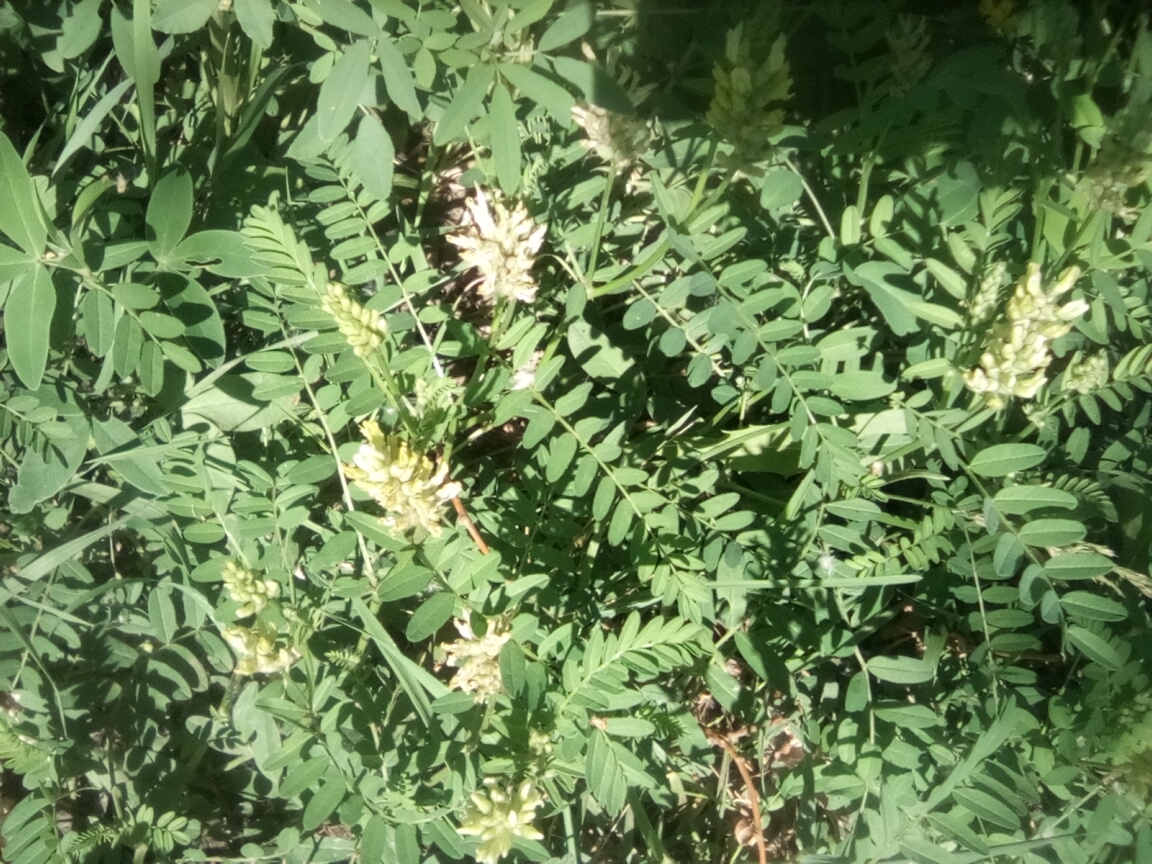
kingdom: Plantae
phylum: Tracheophyta
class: Magnoliopsida
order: Fabales
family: Fabaceae
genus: Astragalus
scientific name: Astragalus cicer
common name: Chick-pea milk-vetch
